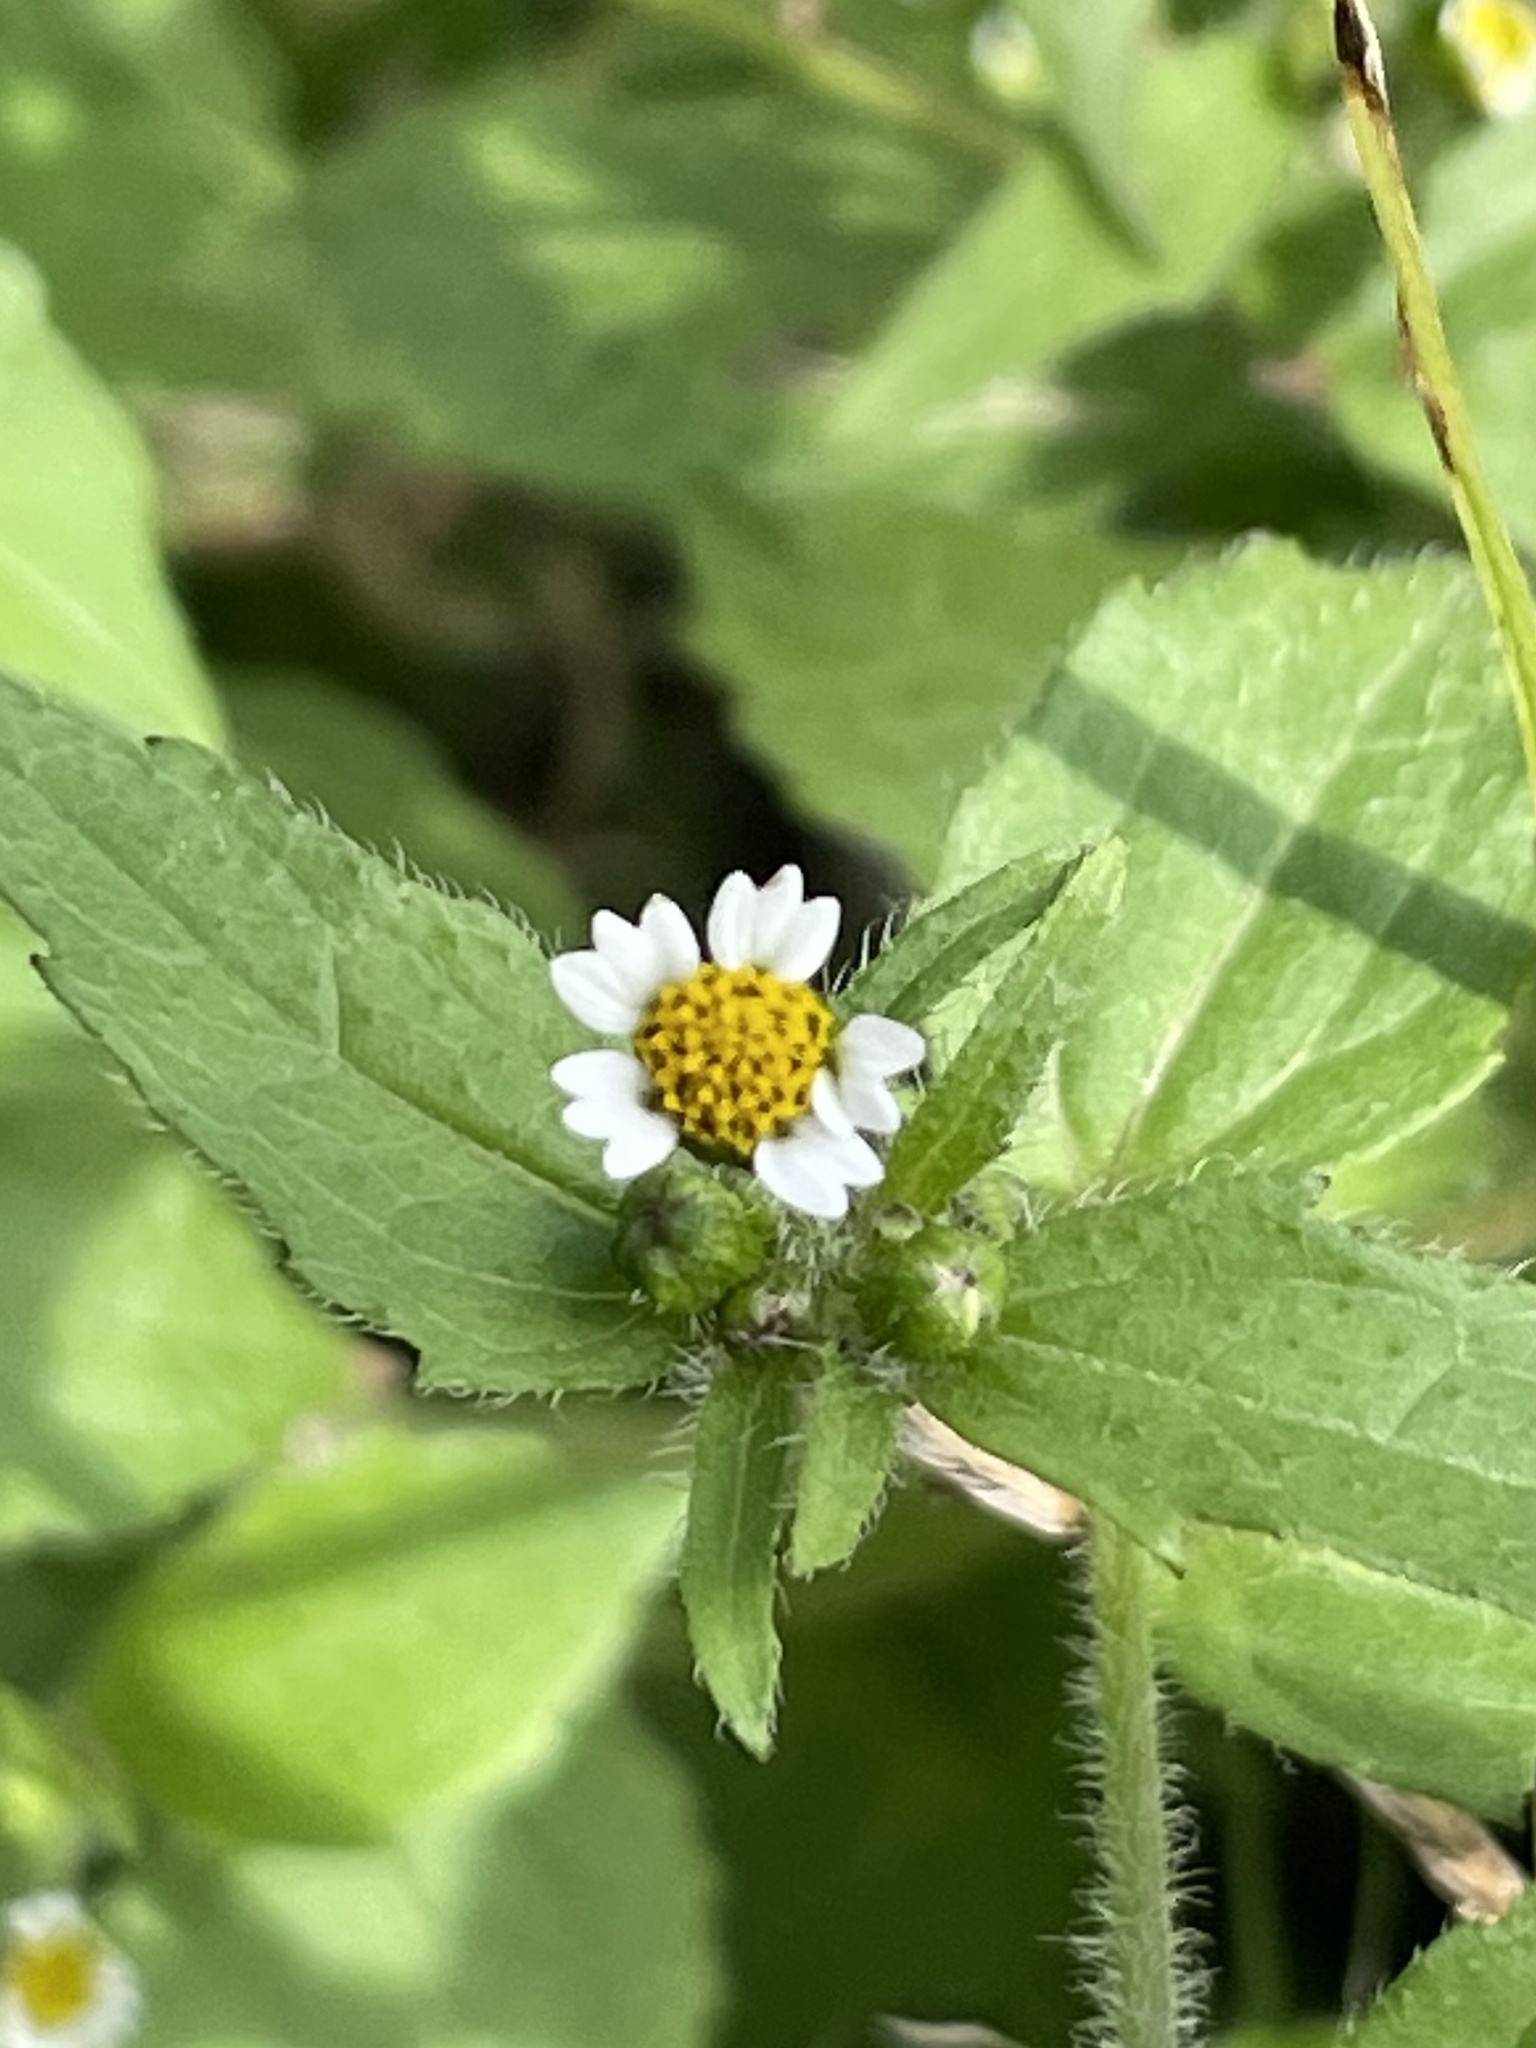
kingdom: Plantae
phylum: Tracheophyta
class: Magnoliopsida
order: Asterales
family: Asteraceae
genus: Galinsoga
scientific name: Galinsoga quadriradiata
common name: Shaggy soldier
